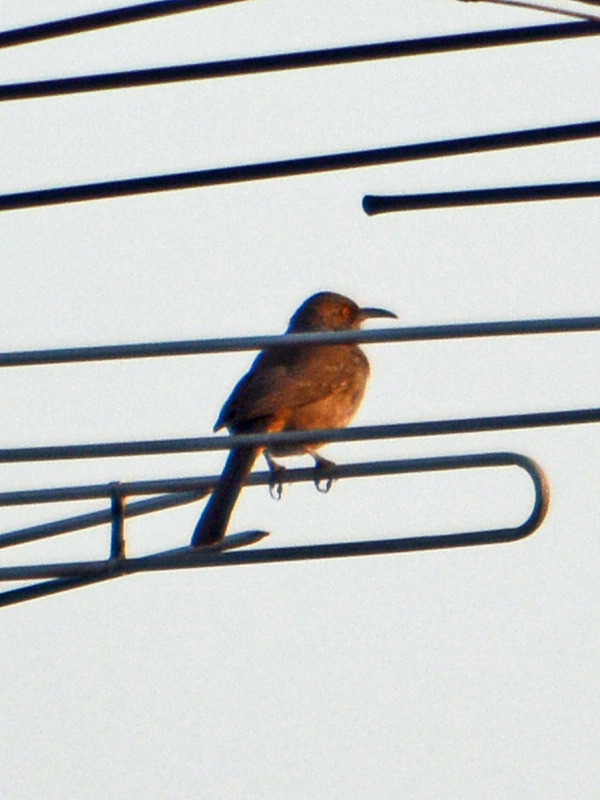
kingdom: Animalia
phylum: Chordata
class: Aves
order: Passeriformes
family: Mimidae
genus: Toxostoma
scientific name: Toxostoma curvirostre
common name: Curve-billed thrasher
